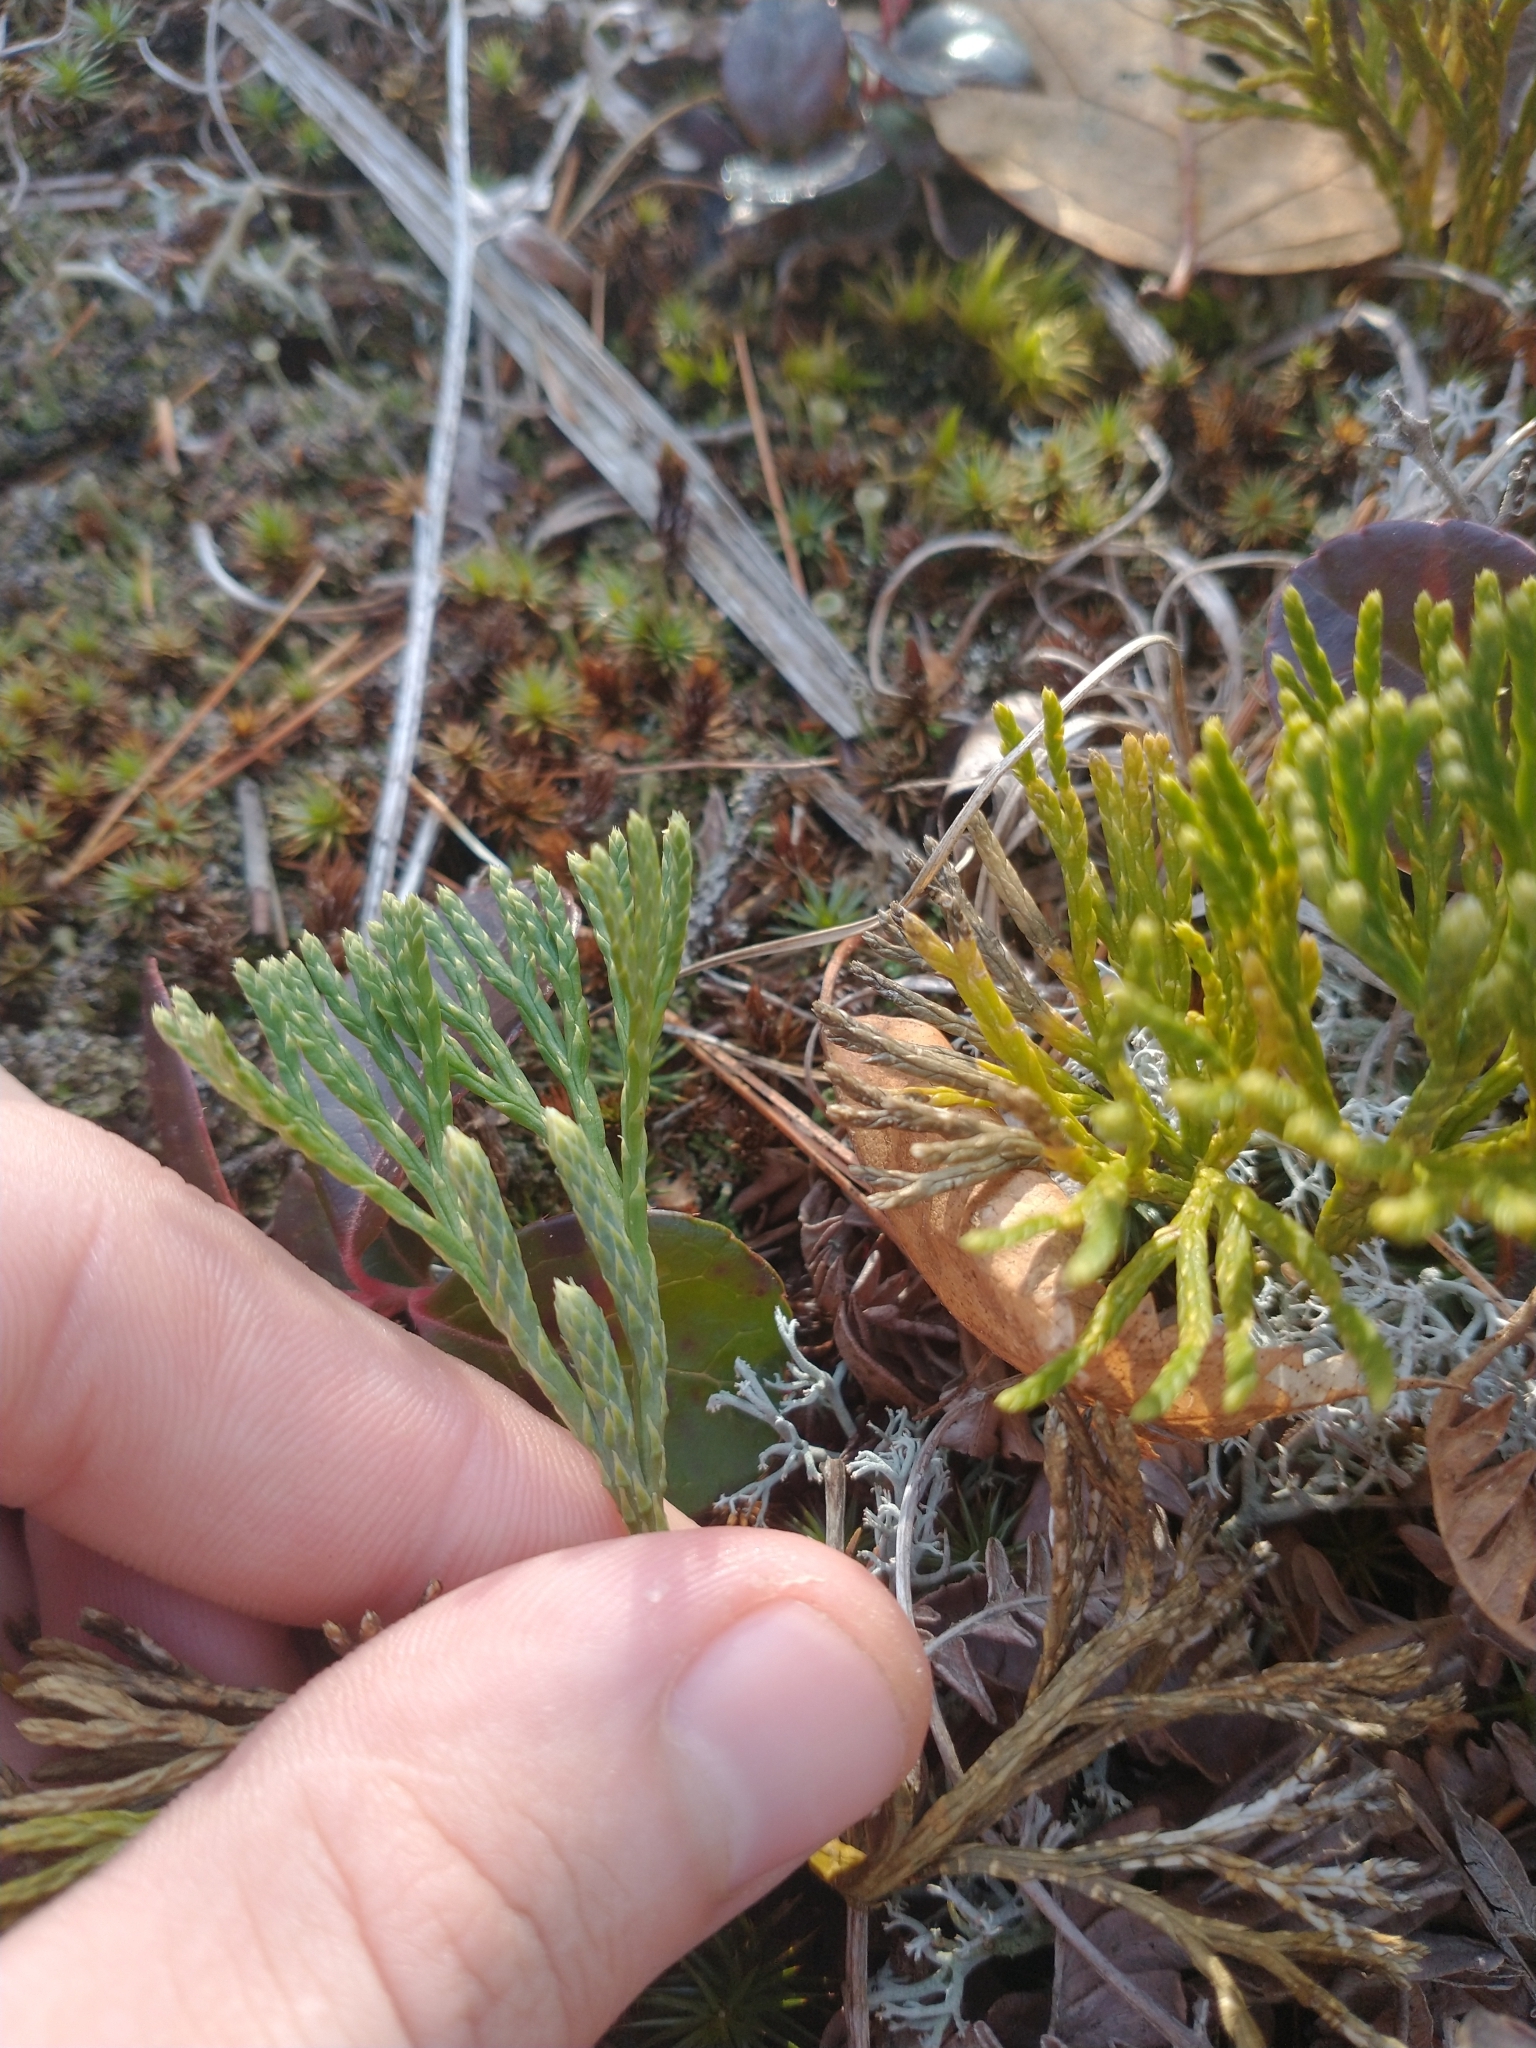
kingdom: Plantae
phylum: Tracheophyta
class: Lycopodiopsida
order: Lycopodiales
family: Lycopodiaceae
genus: Diphasiastrum
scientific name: Diphasiastrum tristachyum
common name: Blue ground-cedar
